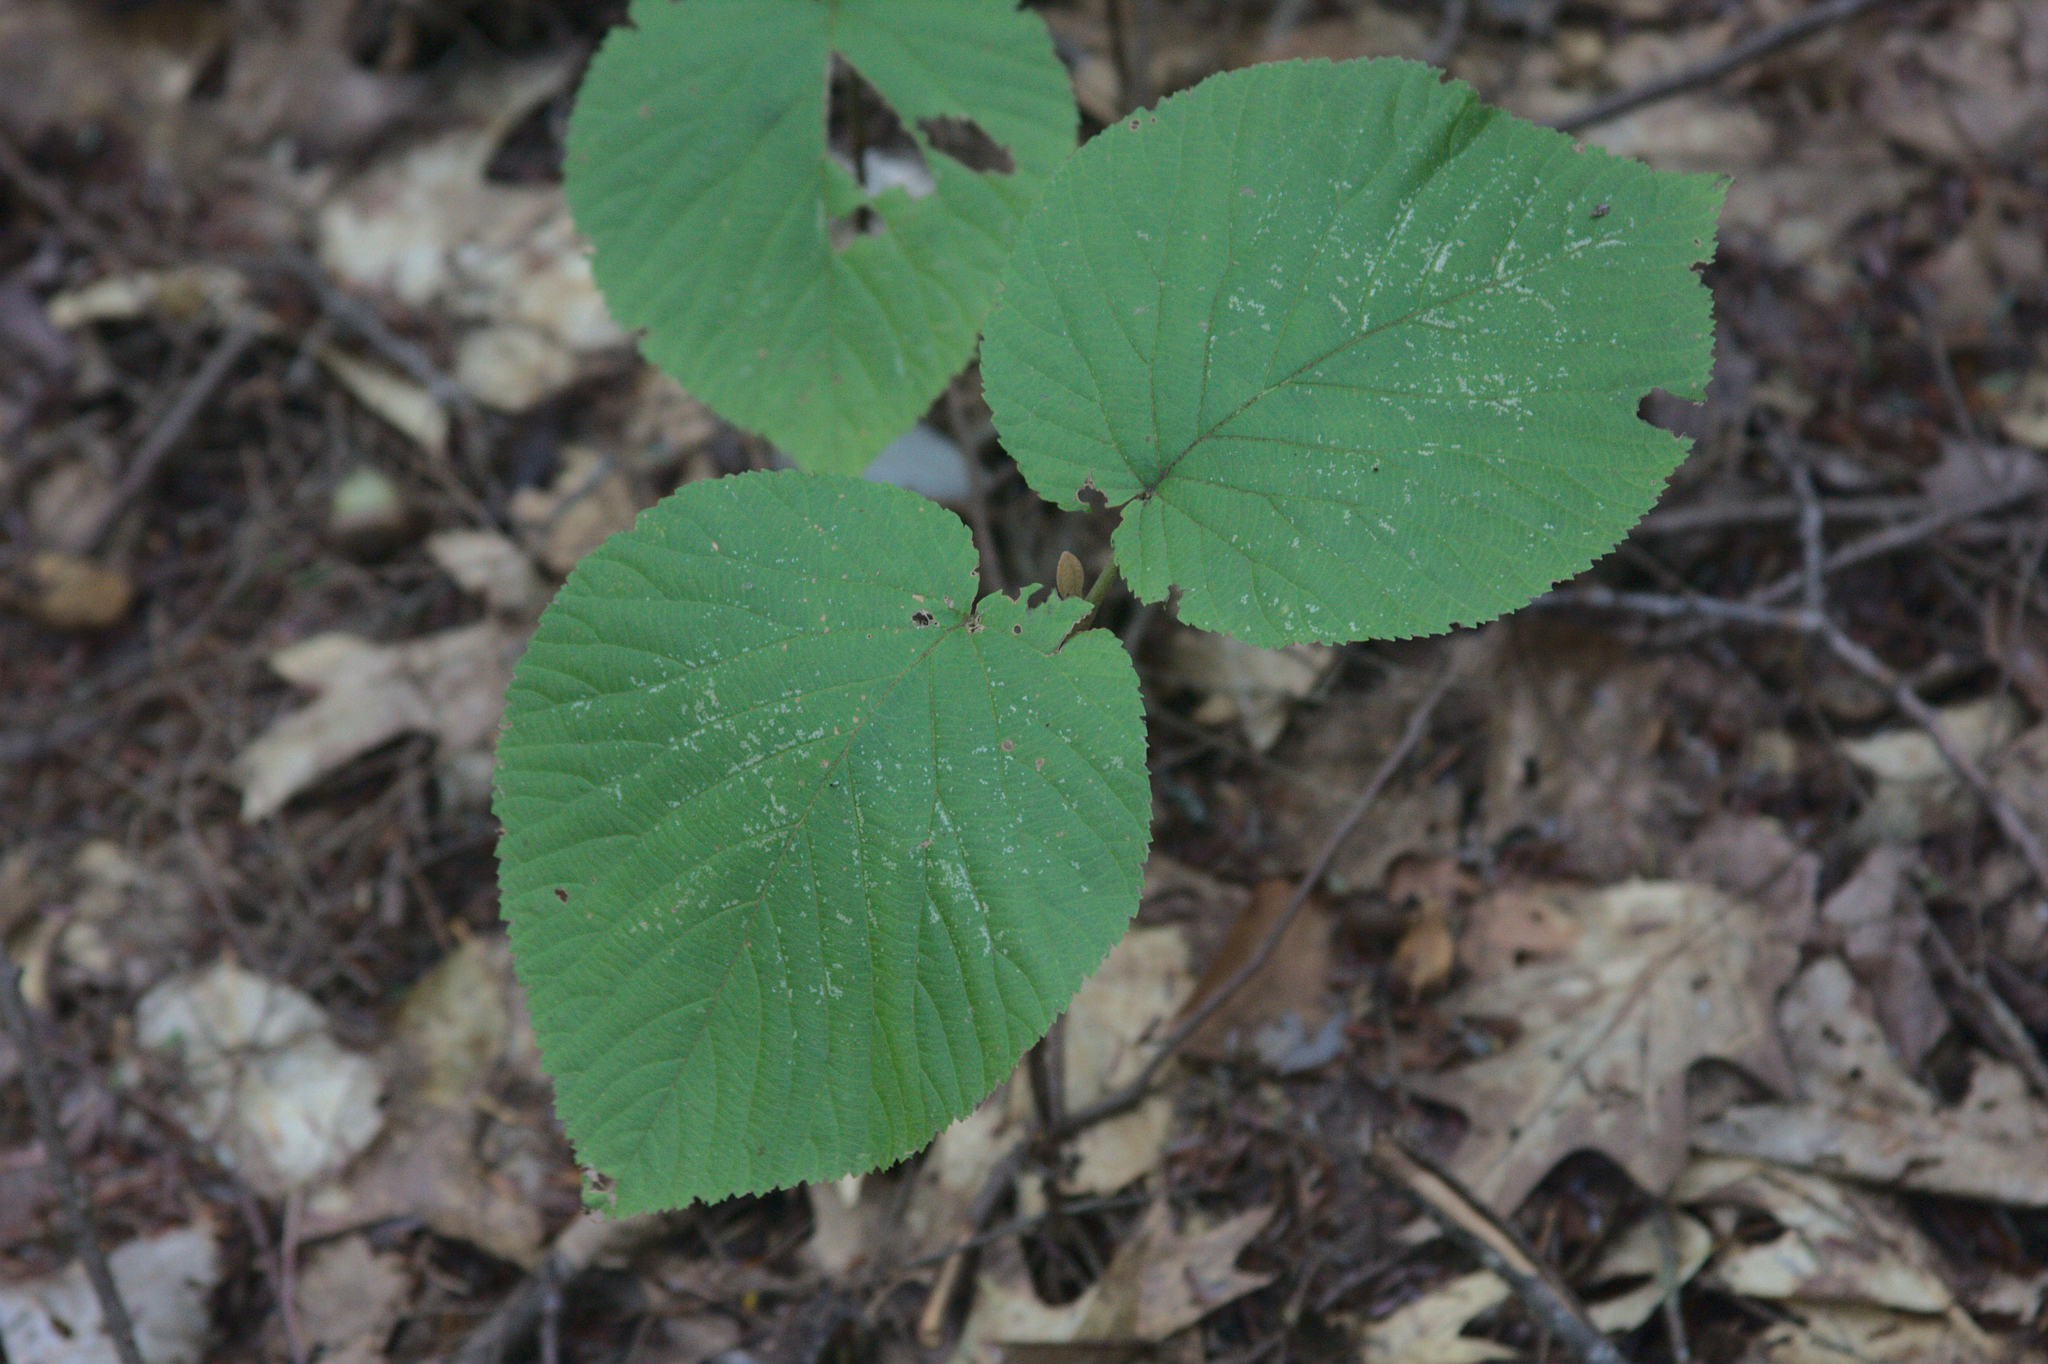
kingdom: Plantae
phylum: Tracheophyta
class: Magnoliopsida
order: Dipsacales
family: Viburnaceae
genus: Viburnum
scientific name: Viburnum lantanoides
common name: Hobblebush
